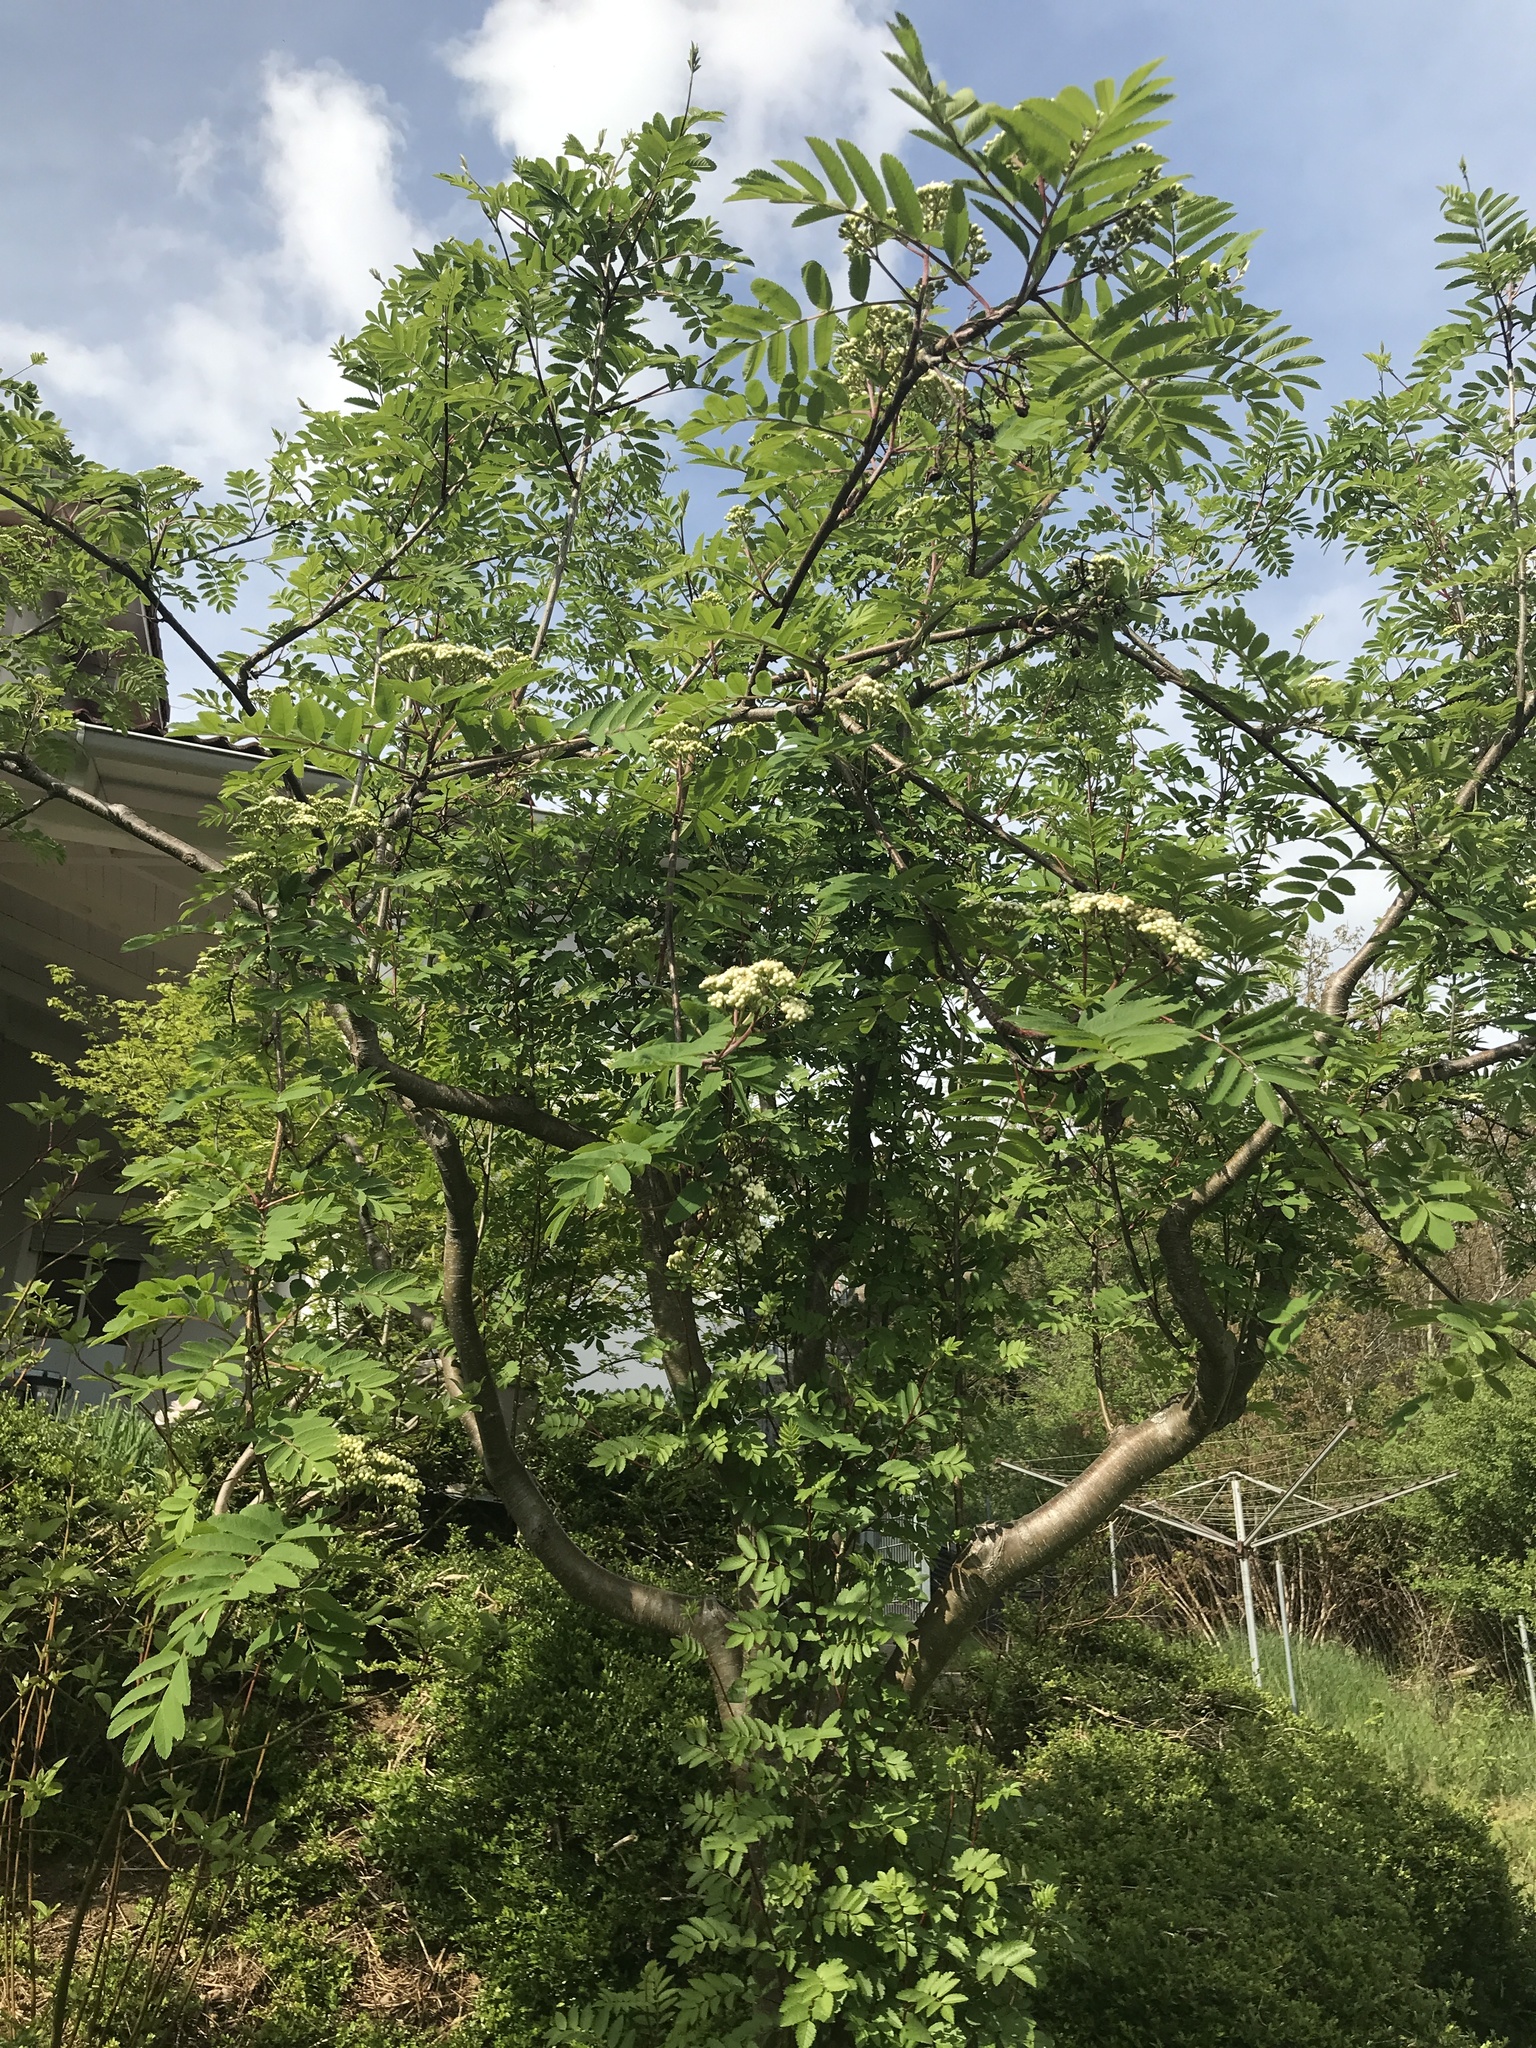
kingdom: Plantae
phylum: Tracheophyta
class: Magnoliopsida
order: Rosales
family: Rosaceae
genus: Sorbus
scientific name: Sorbus aucuparia
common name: Rowan
